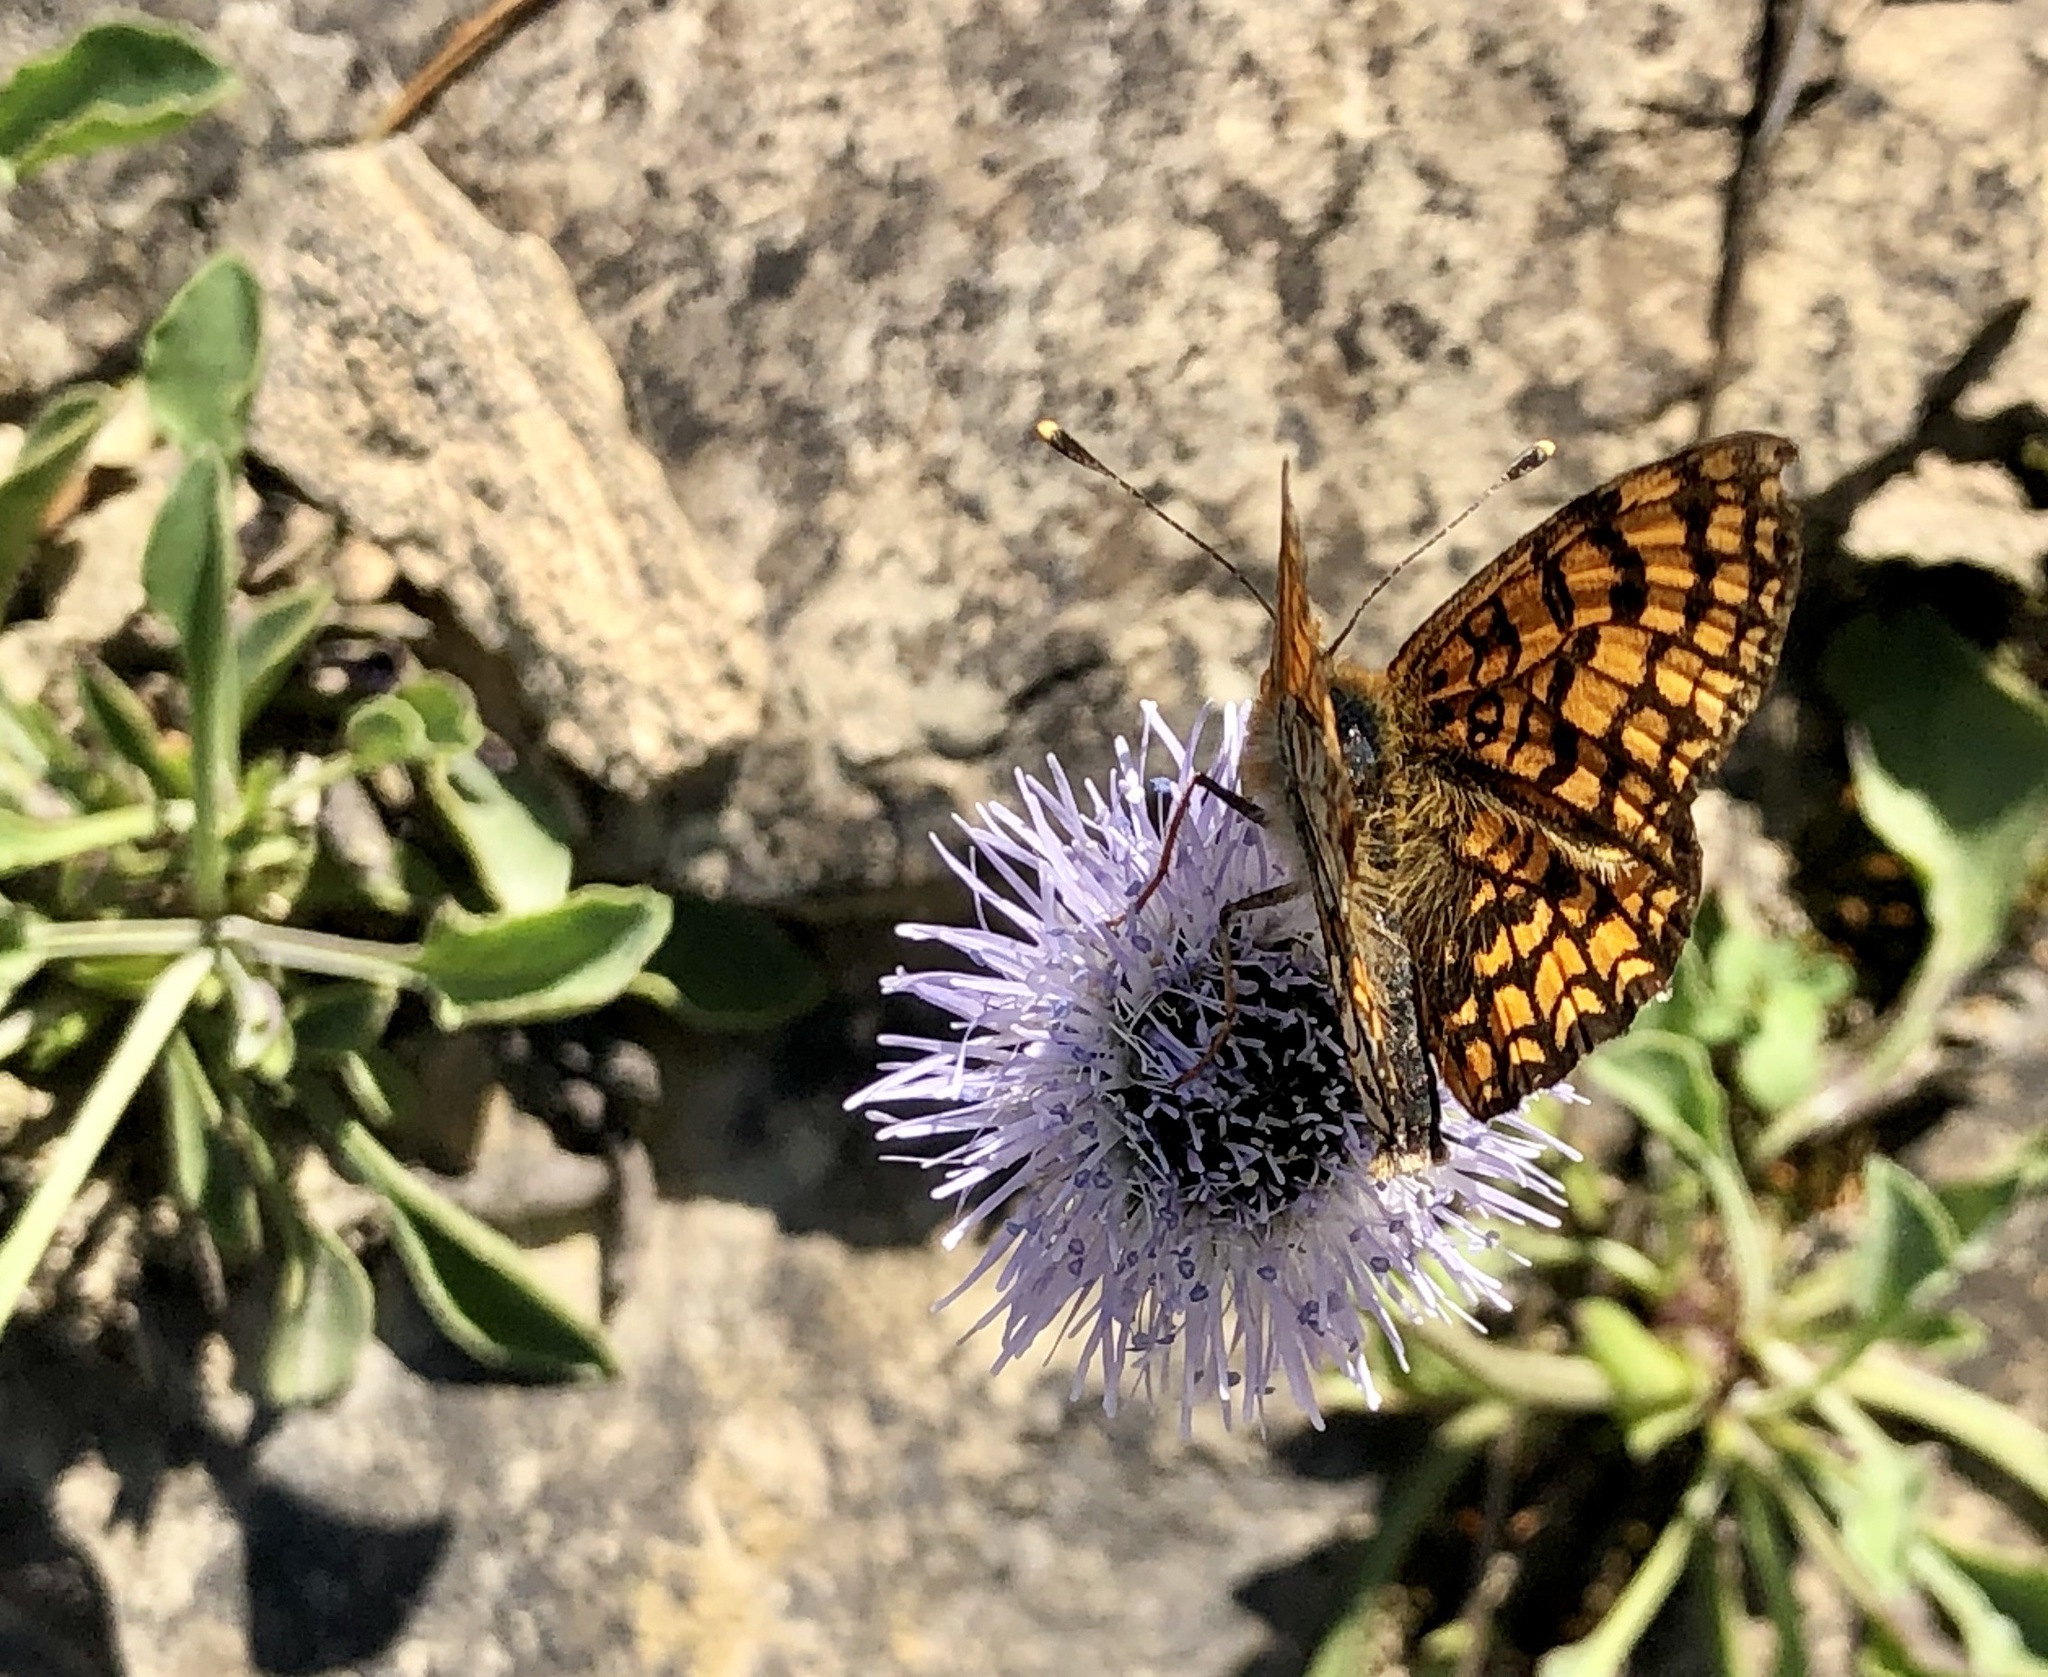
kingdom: Animalia
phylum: Arthropoda
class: Insecta
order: Lepidoptera
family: Nymphalidae
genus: Melitaea
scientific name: Melitaea deione
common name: Provençal fritillary
